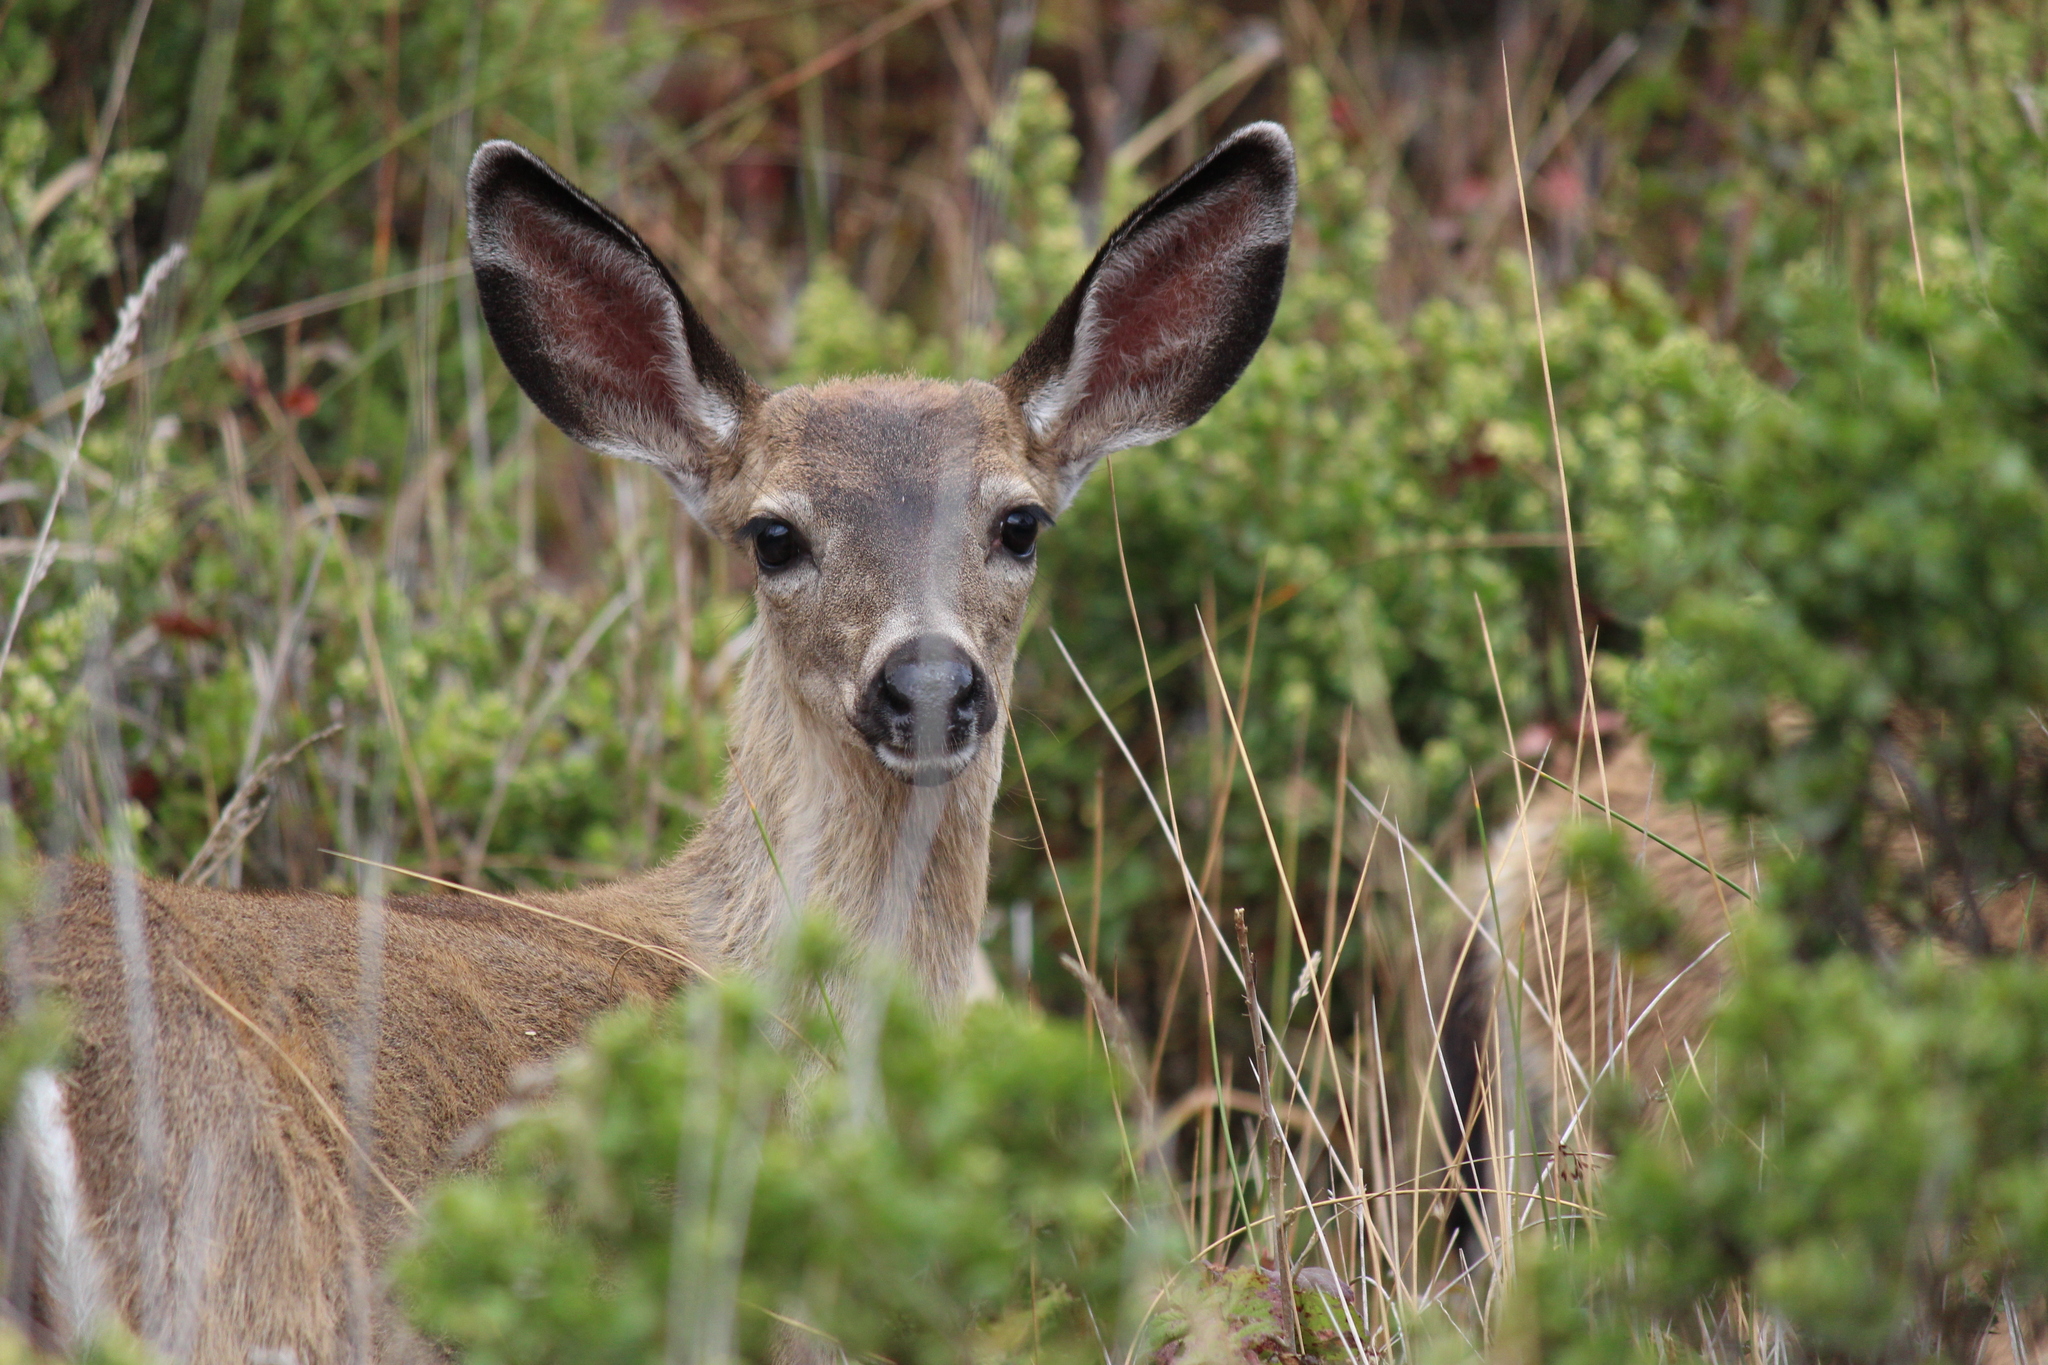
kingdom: Animalia
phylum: Chordata
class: Mammalia
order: Artiodactyla
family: Cervidae
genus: Odocoileus
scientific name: Odocoileus hemionus
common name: Mule deer
